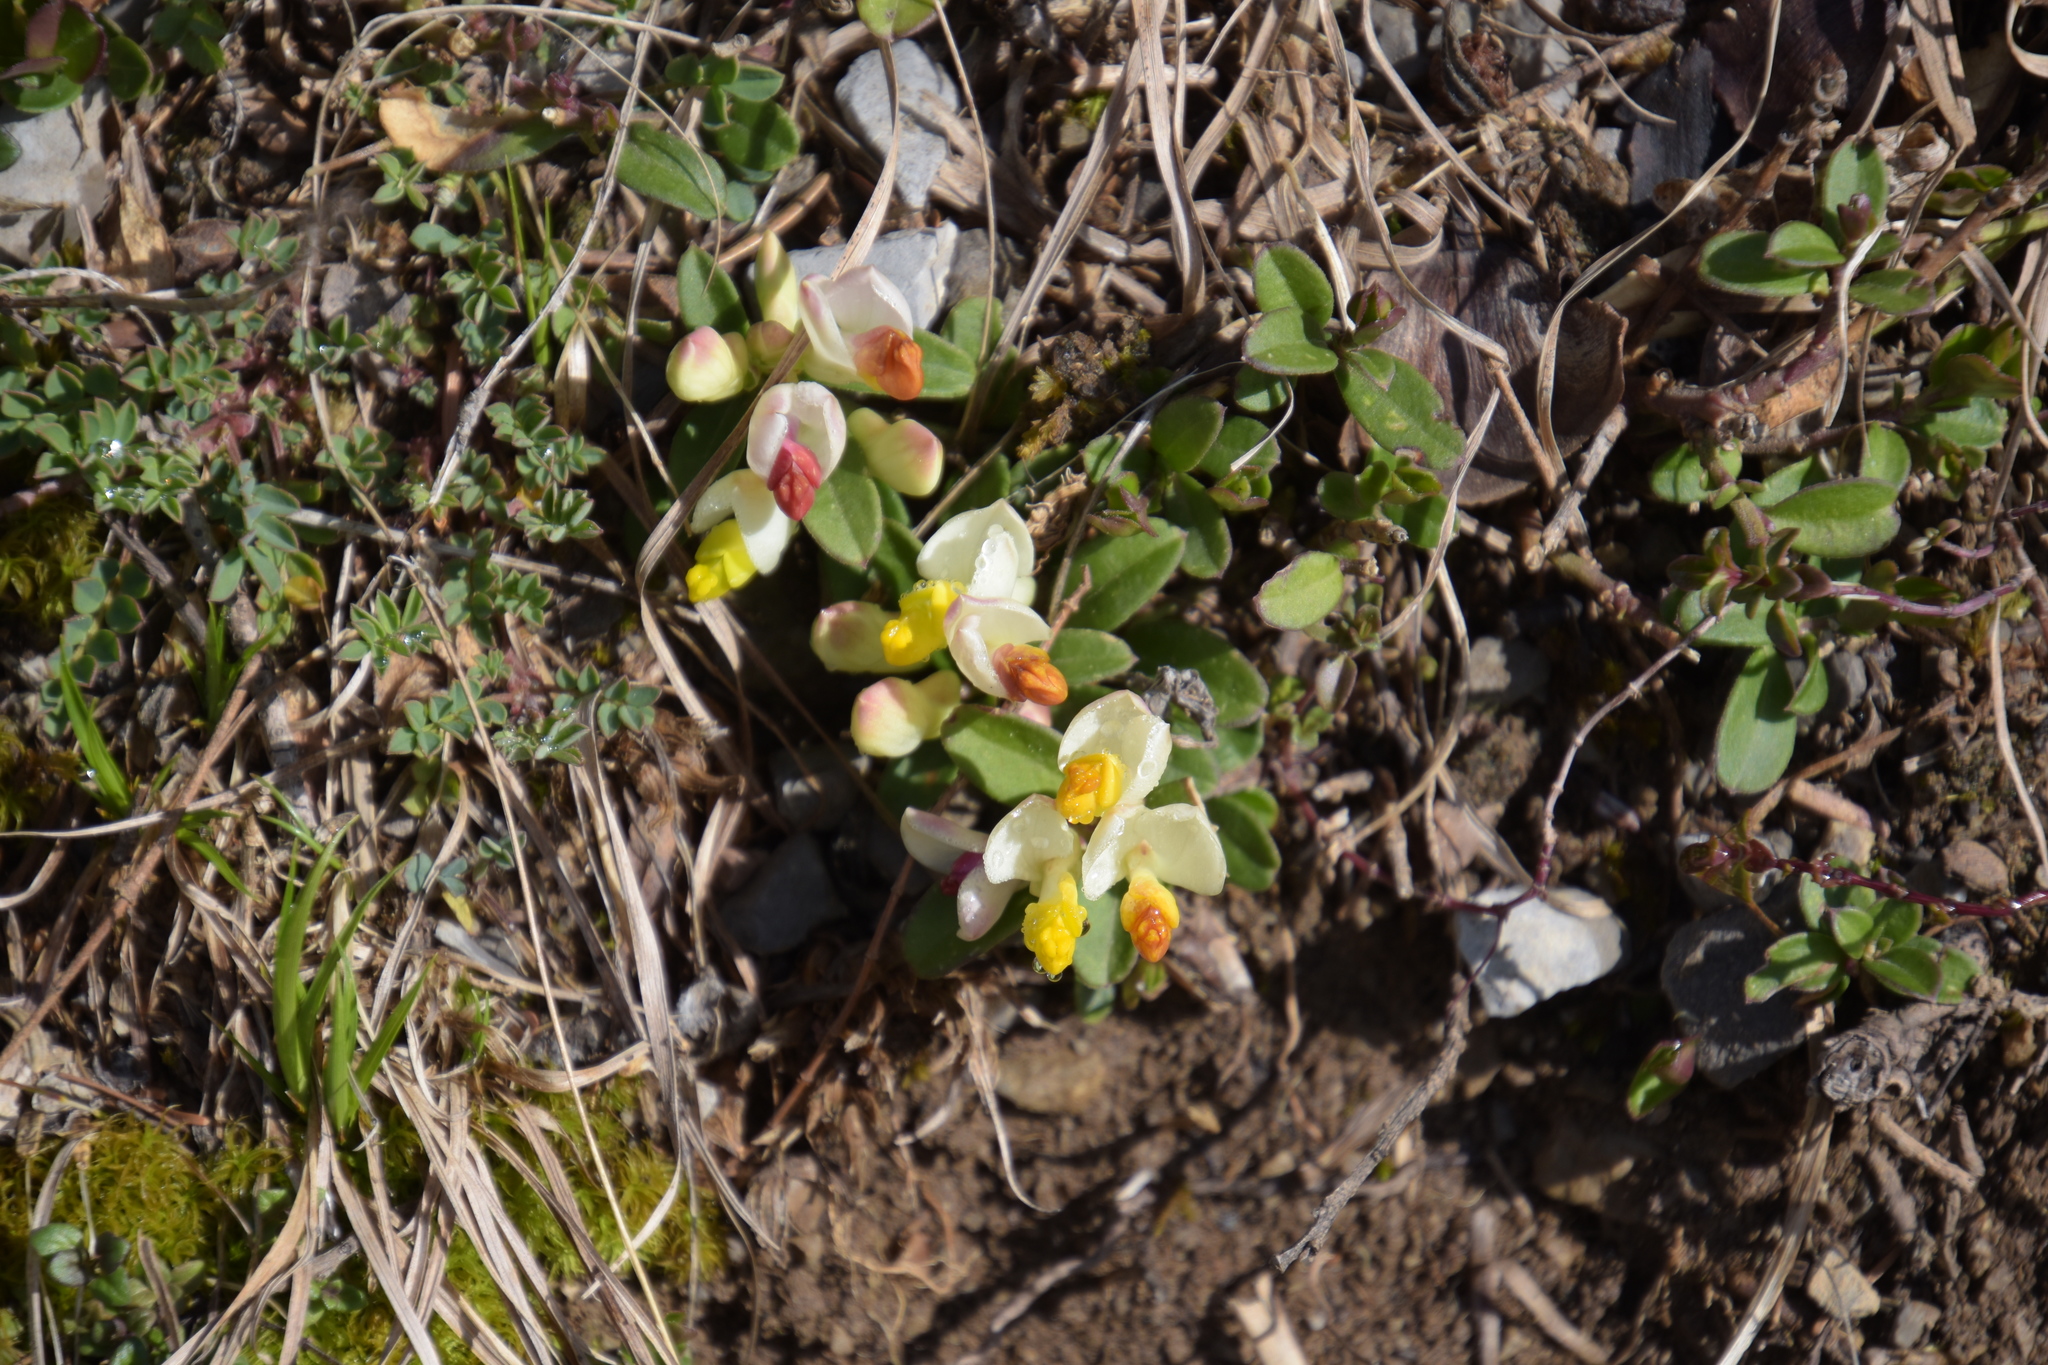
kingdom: Plantae
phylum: Tracheophyta
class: Magnoliopsida
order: Fabales
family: Polygalaceae
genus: Polygaloides
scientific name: Polygaloides chamaebuxus
